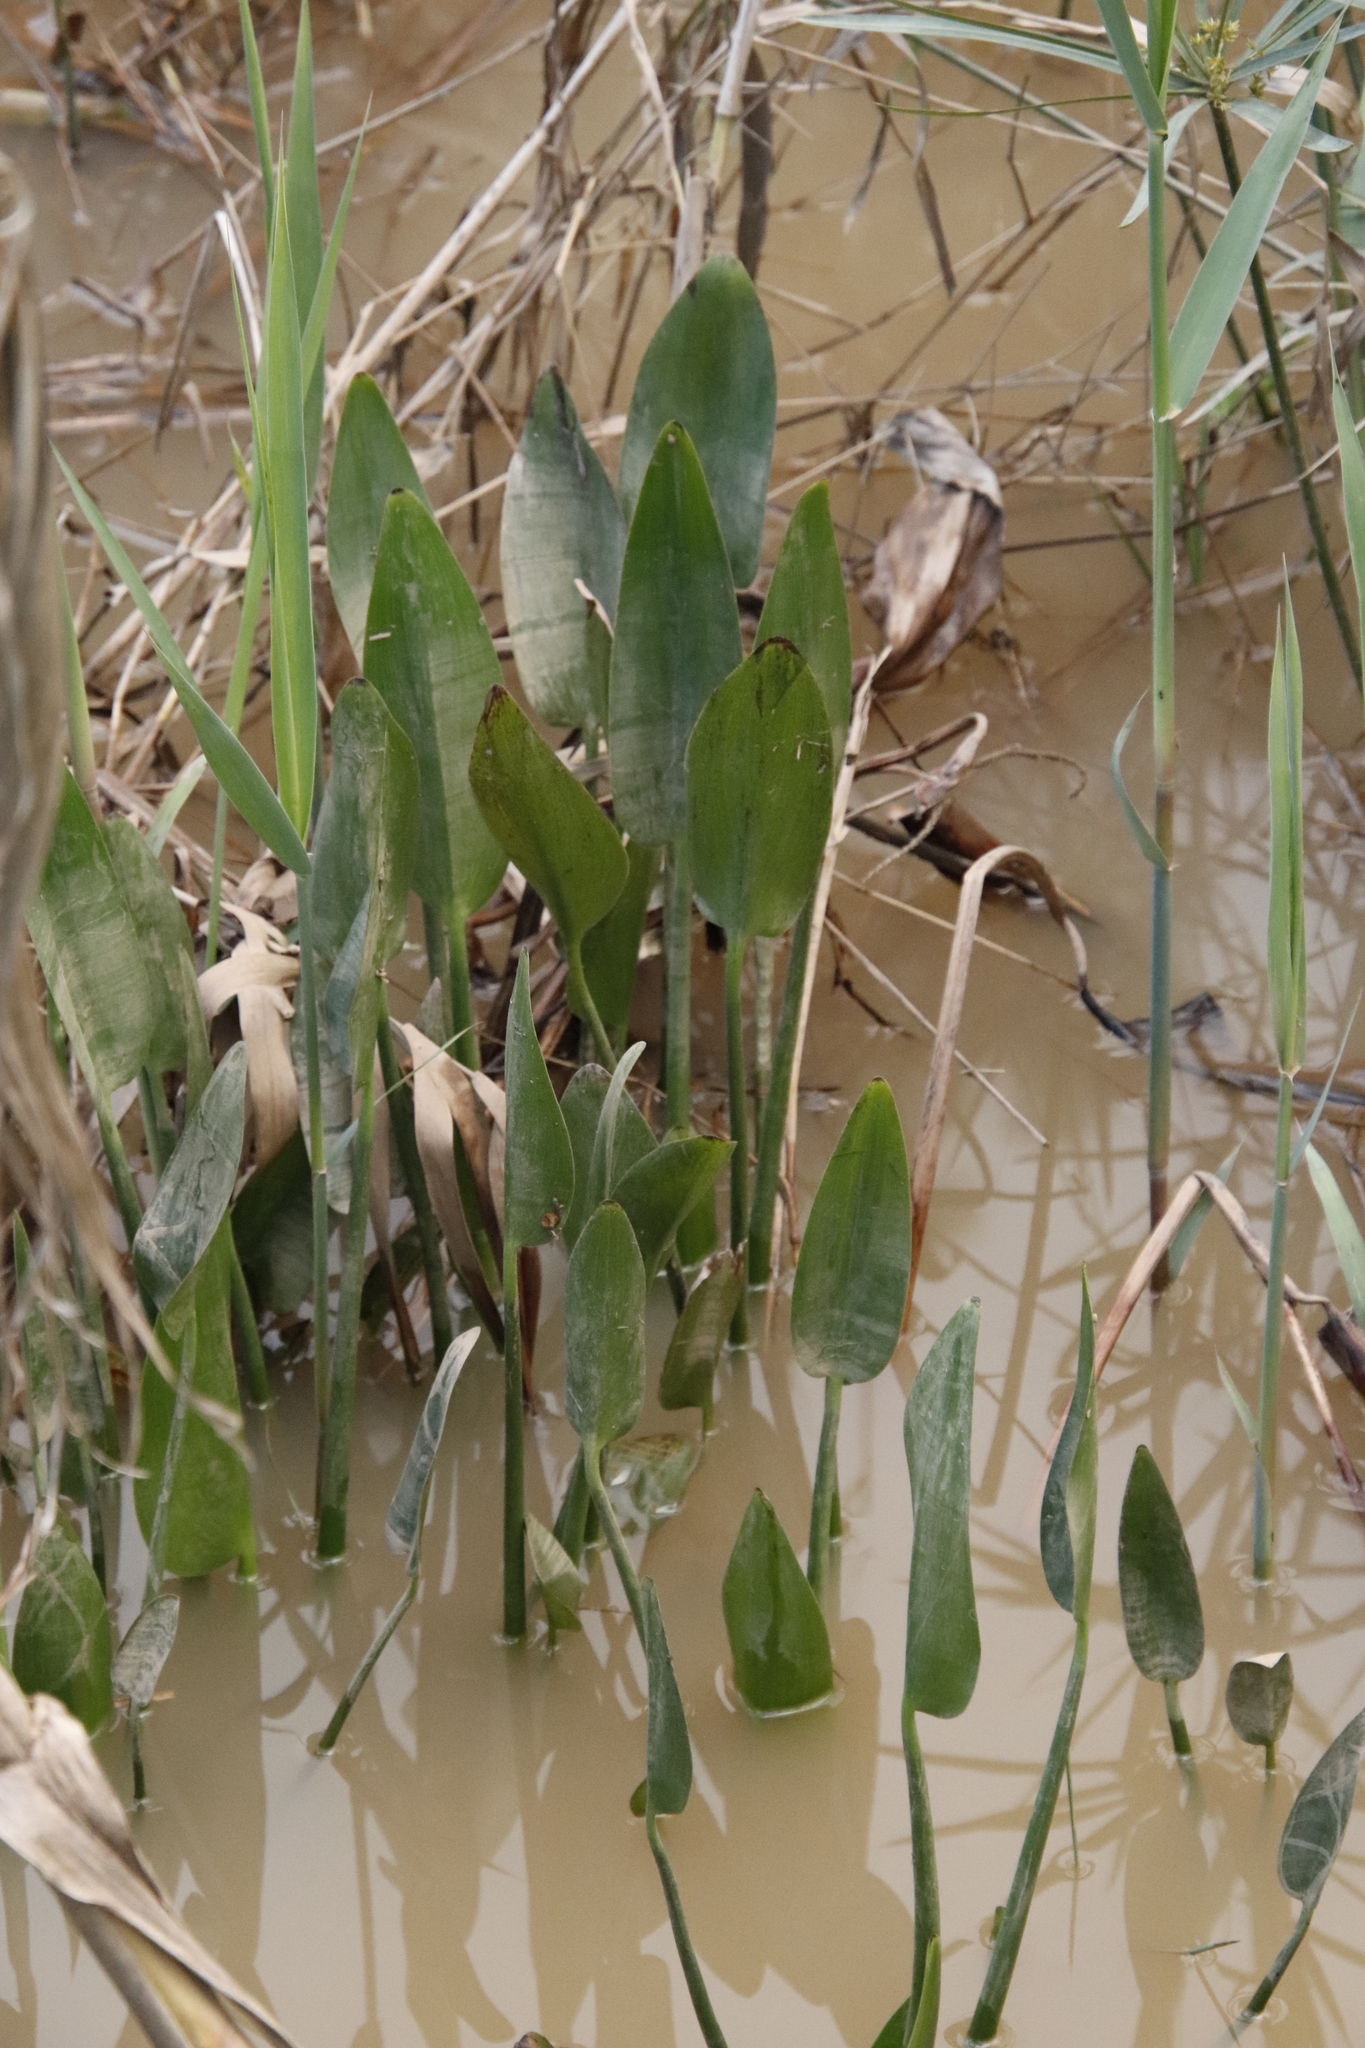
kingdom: Plantae
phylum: Tracheophyta
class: Liliopsida
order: Commelinales
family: Pontederiaceae
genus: Pontederia
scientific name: Pontederia cordata
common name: Pickerelweed
